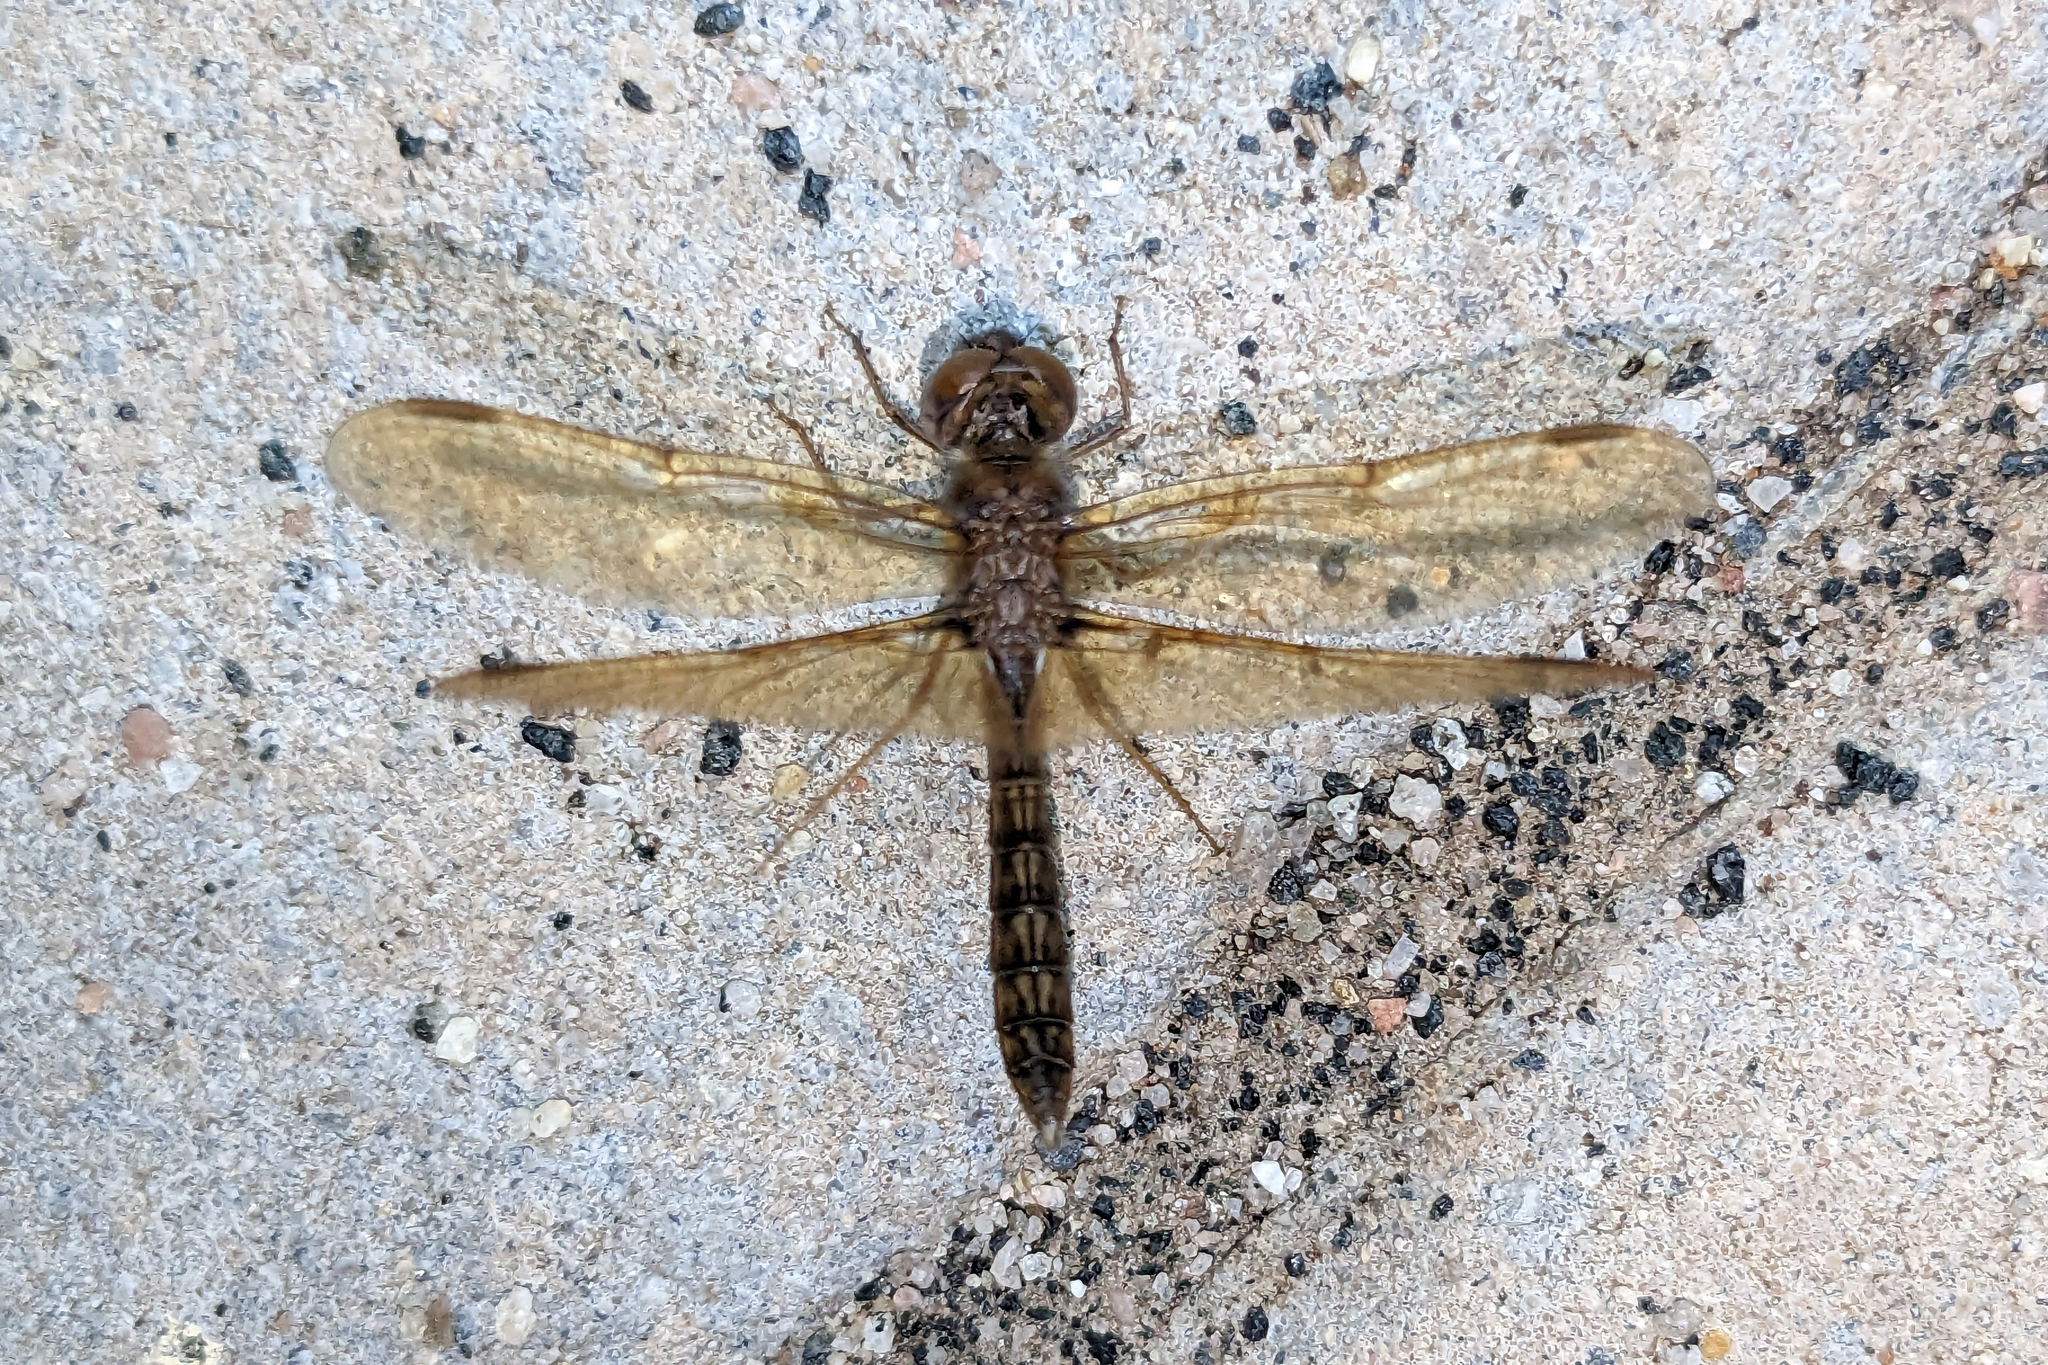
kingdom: Animalia
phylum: Arthropoda
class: Insecta
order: Odonata
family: Libellulidae
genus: Perithemis
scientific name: Perithemis tenera
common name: Eastern amberwing
